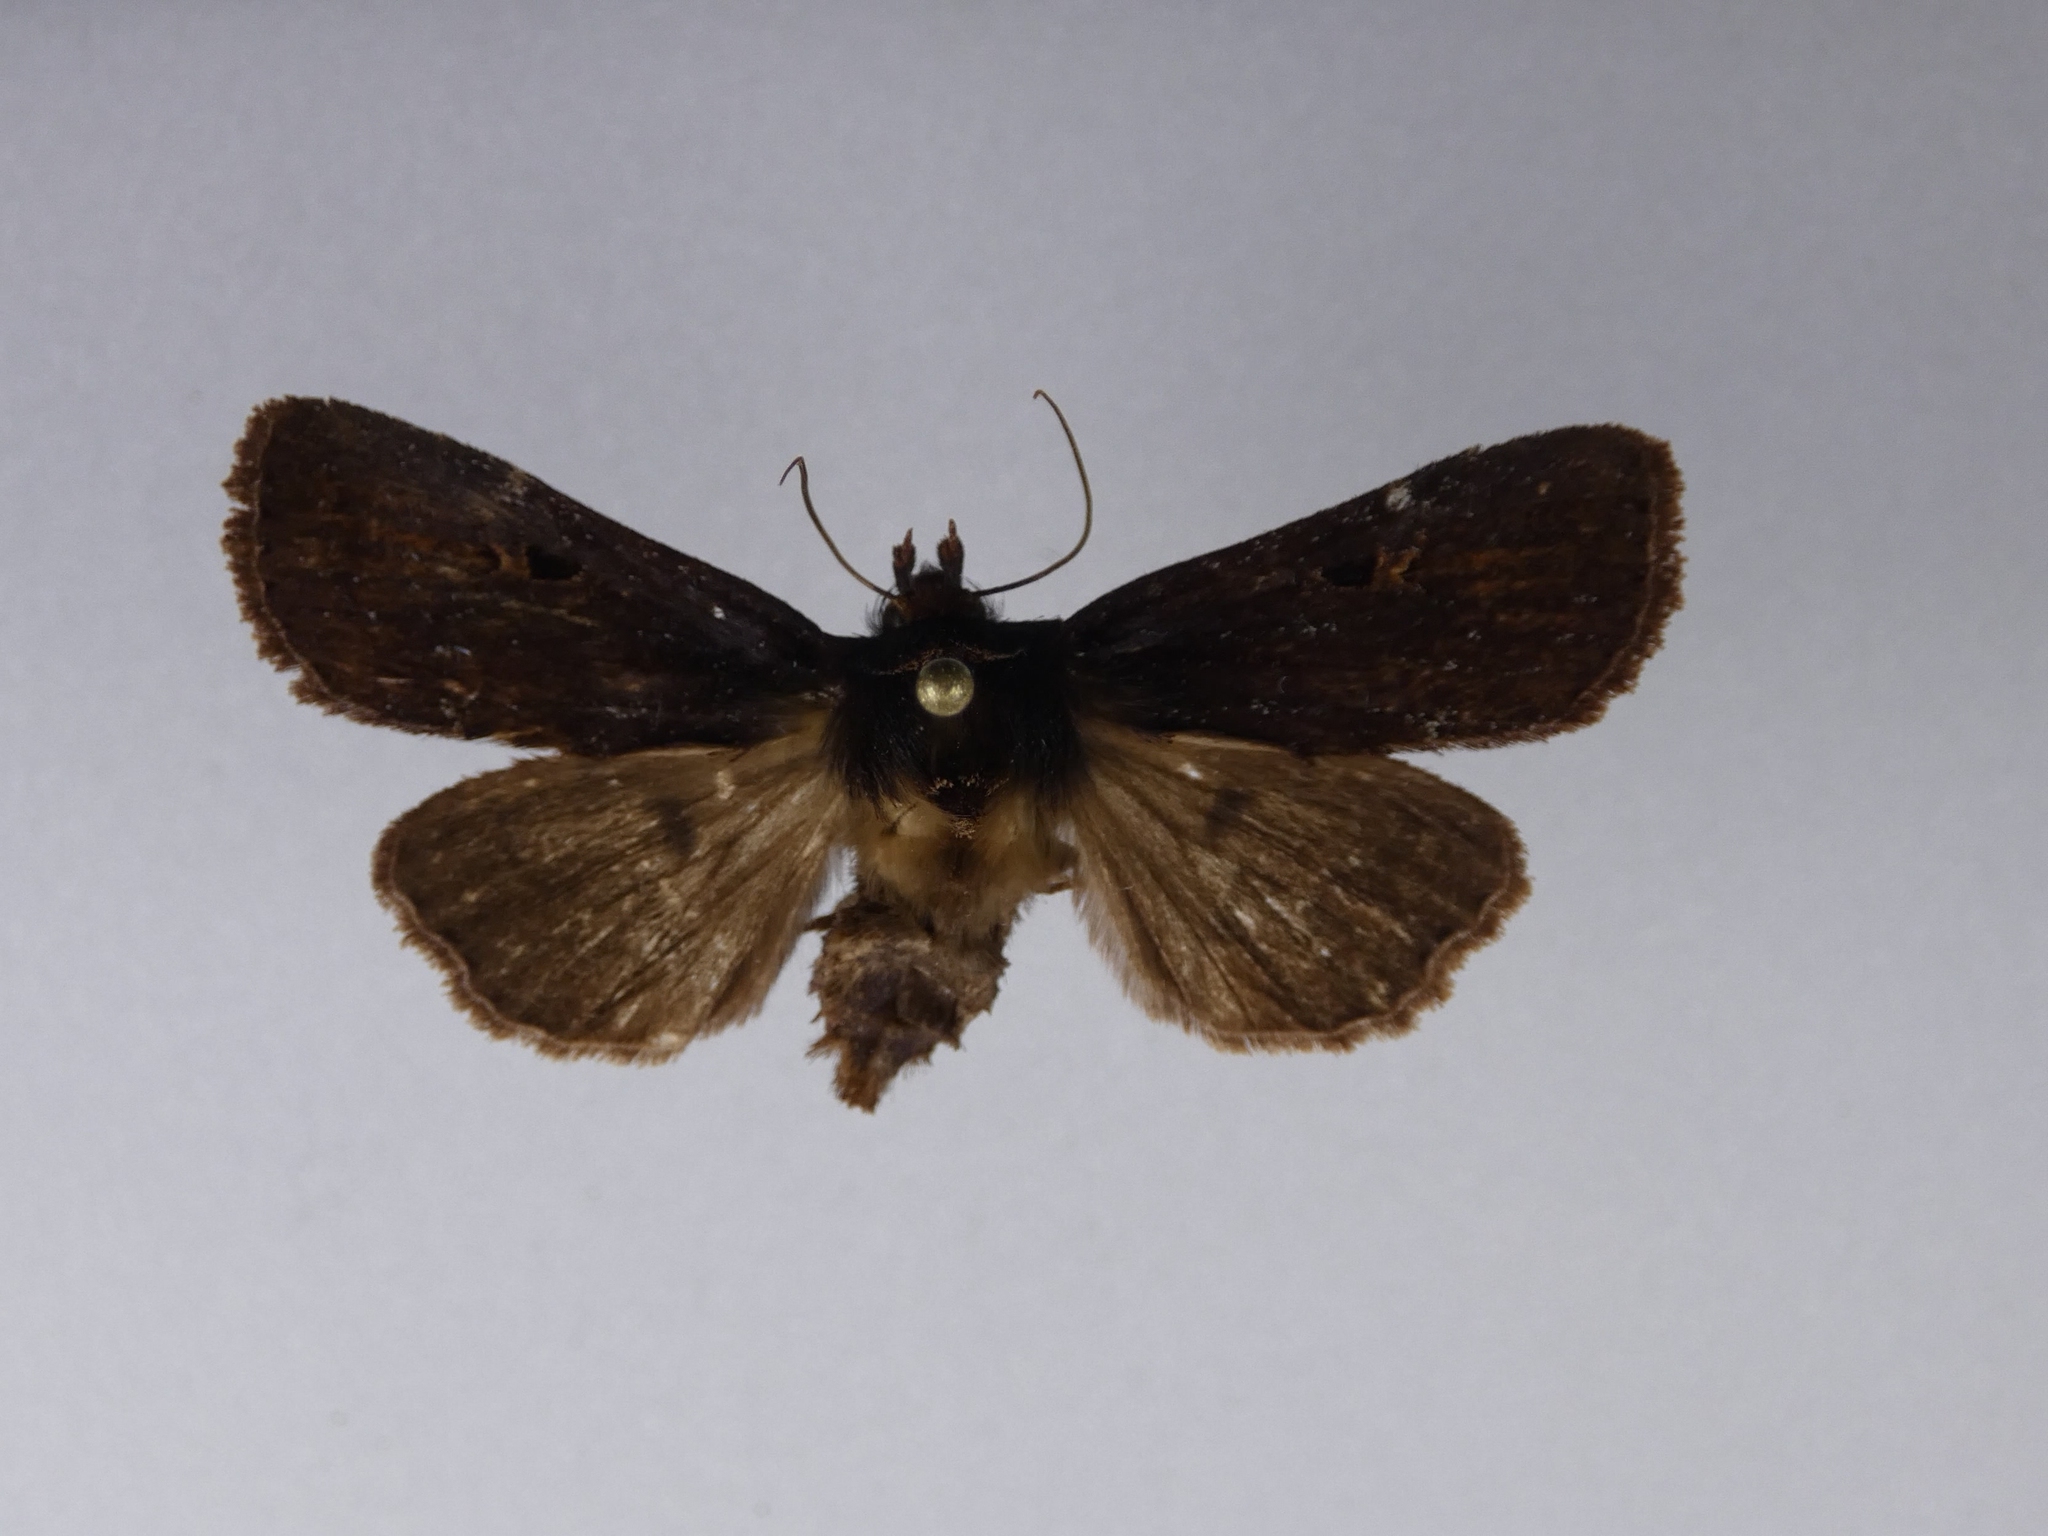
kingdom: Animalia
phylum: Arthropoda
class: Insecta
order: Lepidoptera
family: Noctuidae
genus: Austramathes
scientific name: Austramathes purpurea
